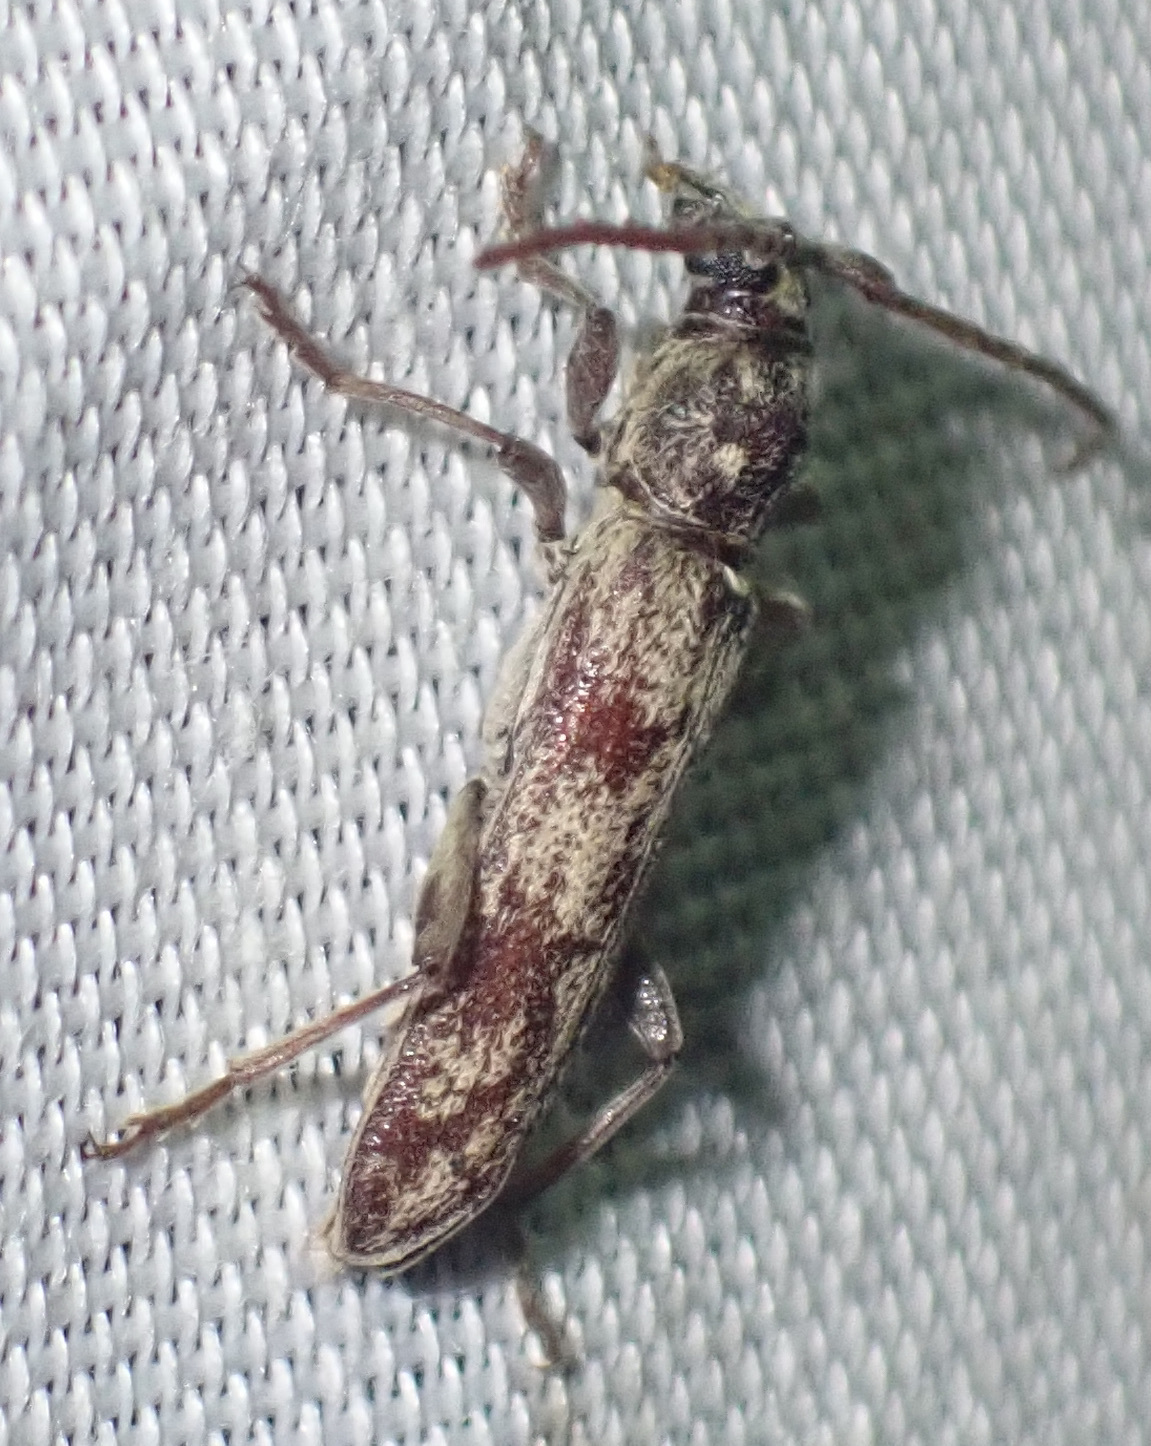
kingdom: Animalia
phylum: Arthropoda
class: Insecta
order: Coleoptera
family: Cerambycidae
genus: Dissaporus
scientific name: Dissaporus cylindricus
